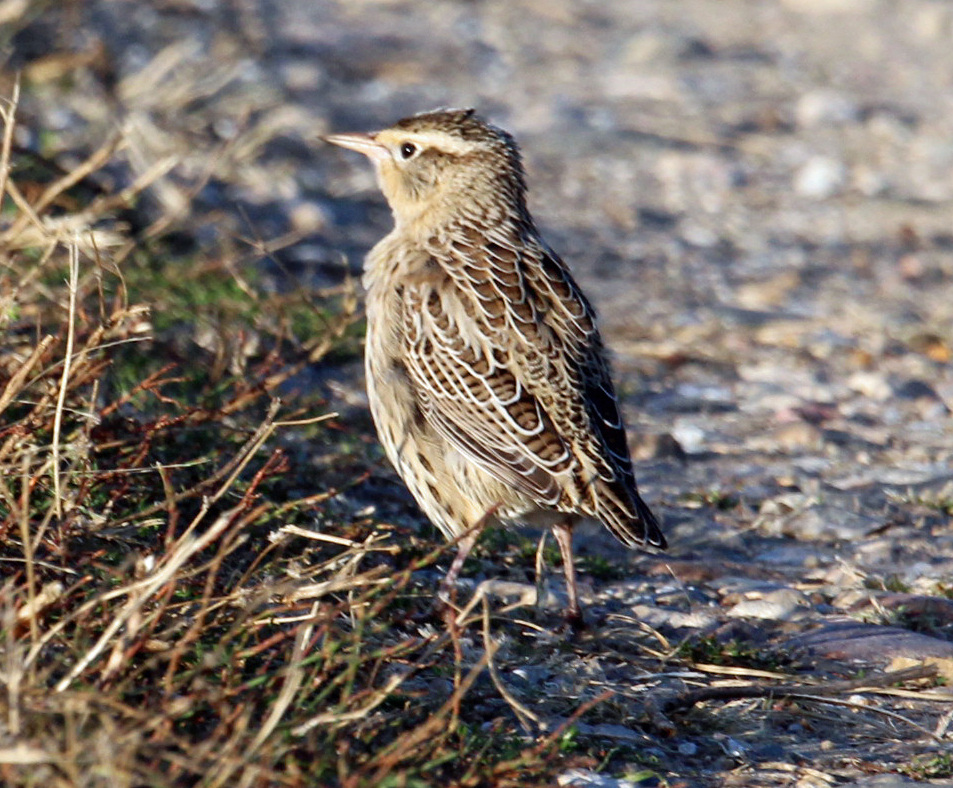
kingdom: Animalia
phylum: Chordata
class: Aves
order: Passeriformes
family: Icteridae
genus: Sturnella
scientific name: Sturnella neglecta
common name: Western meadowlark
